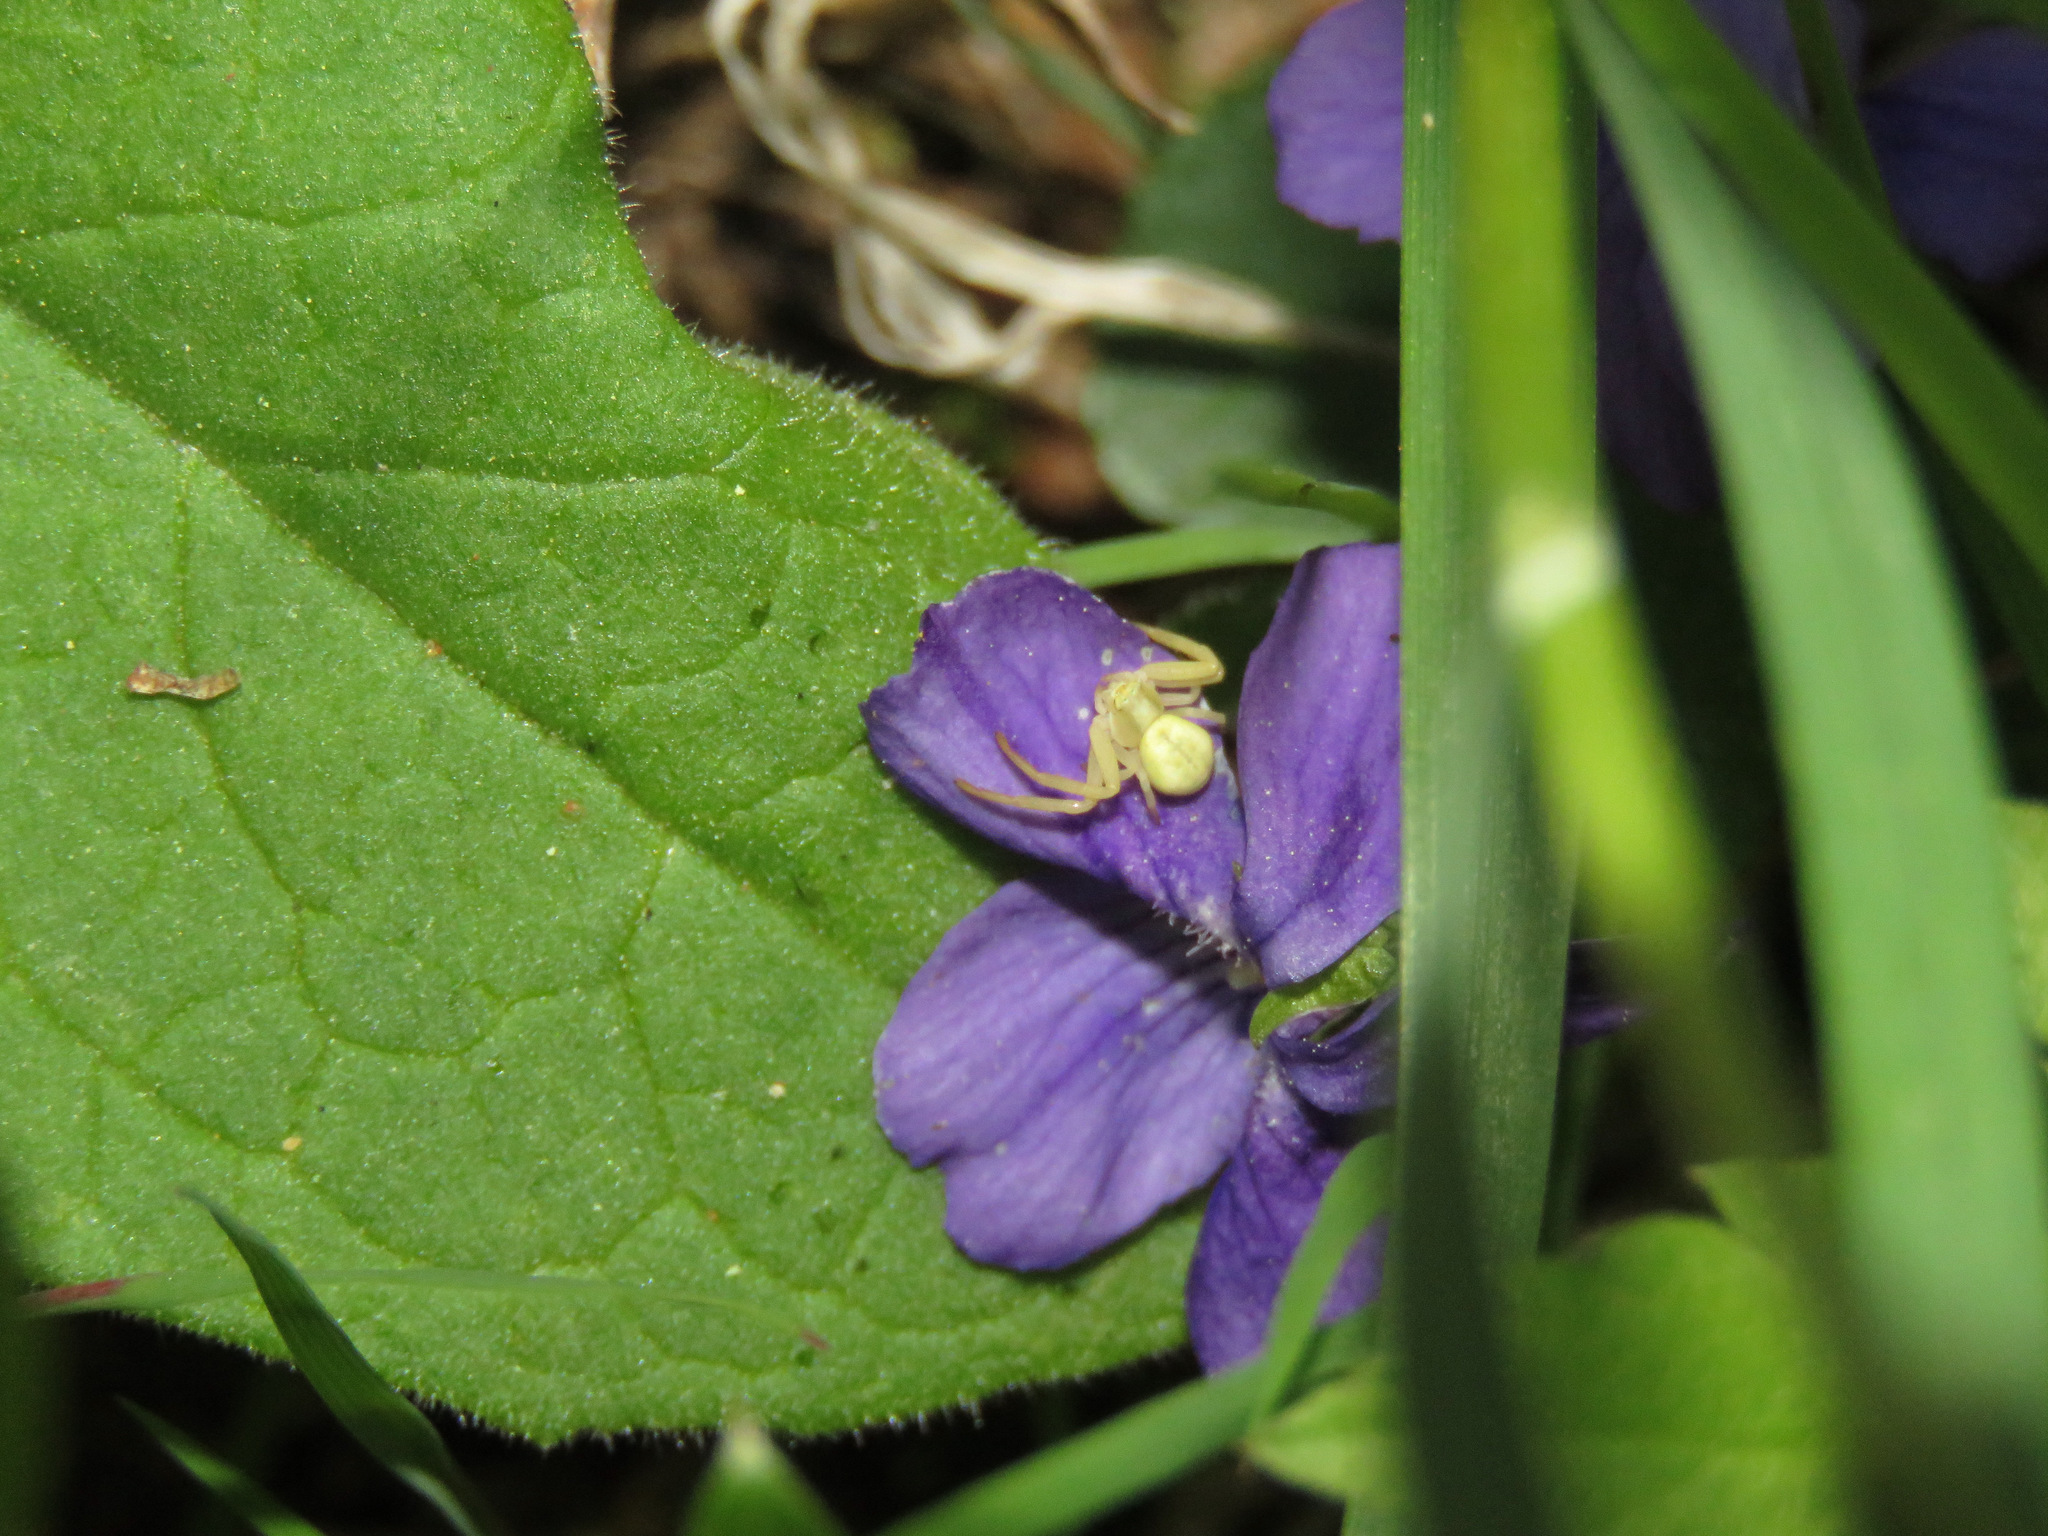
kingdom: Animalia
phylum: Arthropoda
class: Arachnida
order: Araneae
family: Thomisidae
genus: Misumena
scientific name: Misumena vatia
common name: Goldenrod crab spider
